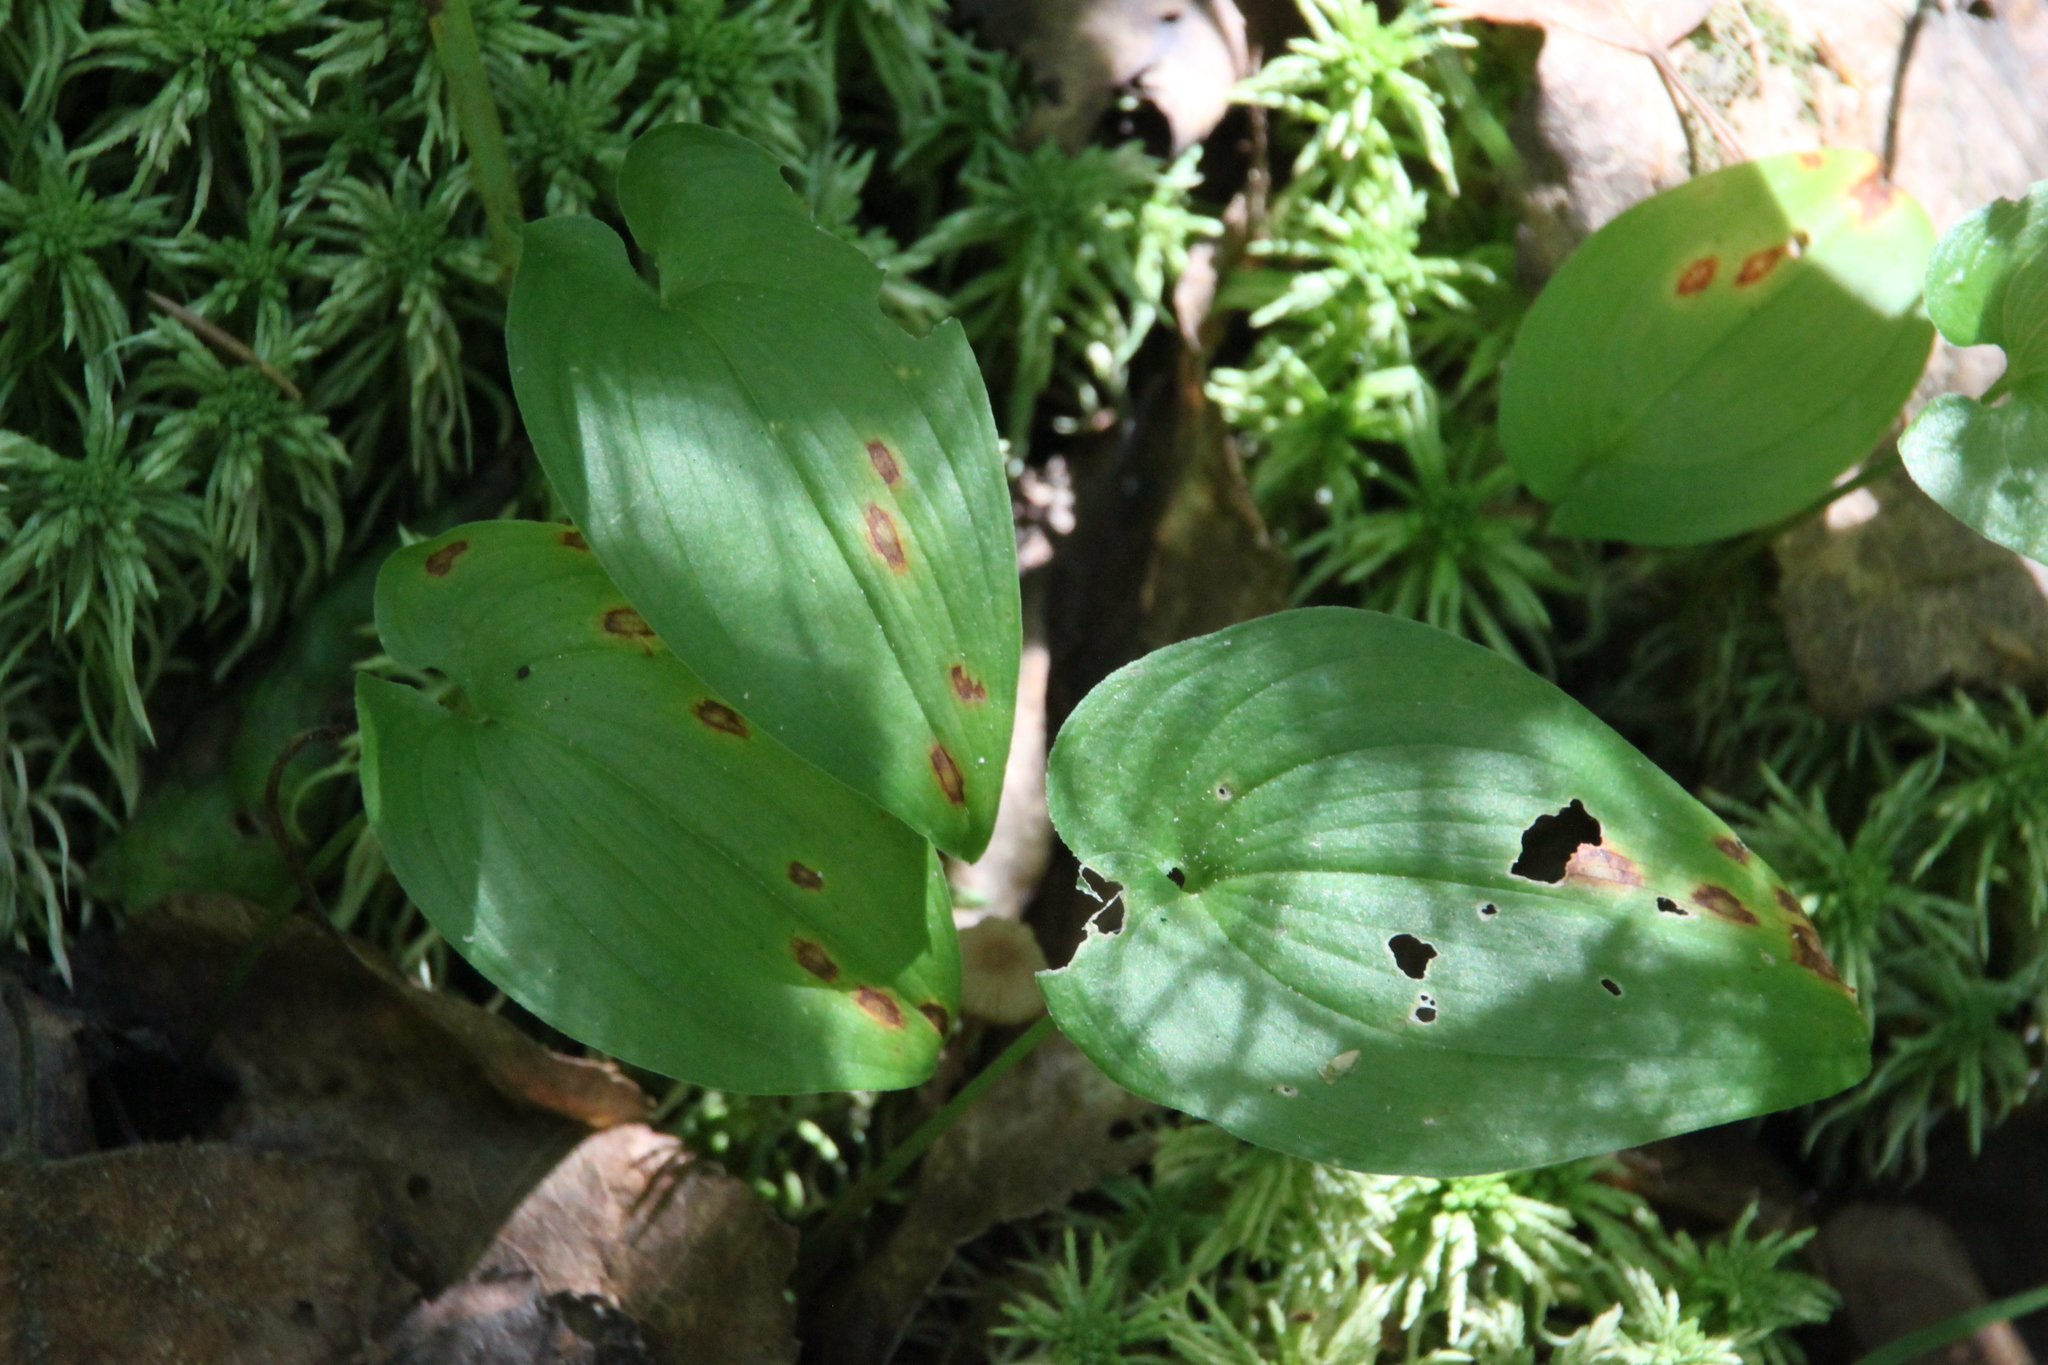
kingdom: Plantae
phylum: Tracheophyta
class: Liliopsida
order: Asparagales
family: Asparagaceae
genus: Maianthemum
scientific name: Maianthemum bifolium
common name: May lily
